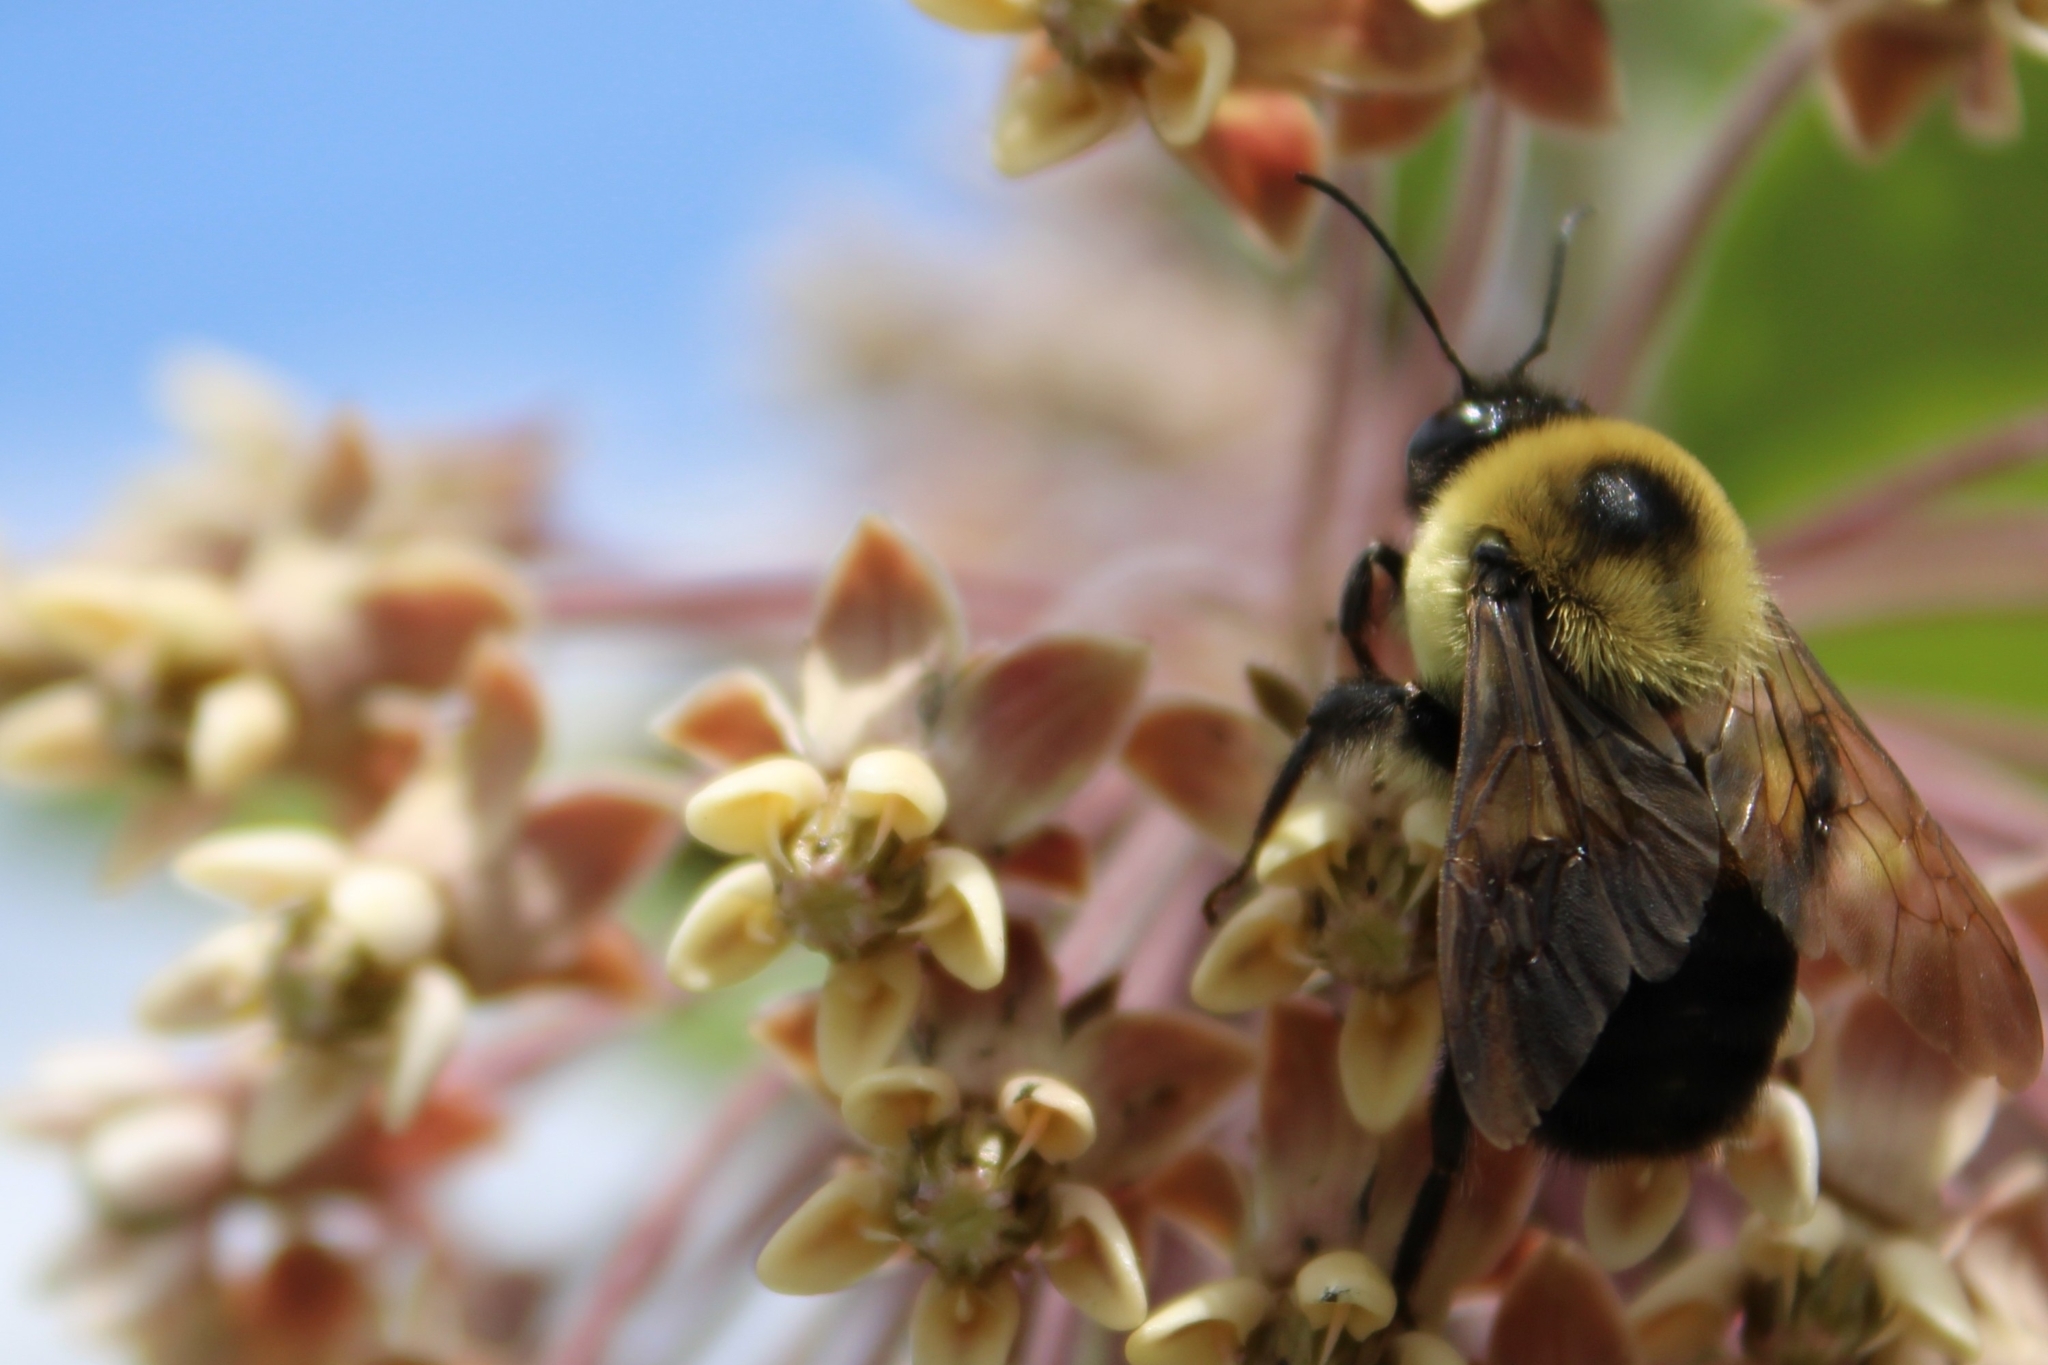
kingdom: Animalia
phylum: Arthropoda
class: Insecta
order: Hymenoptera
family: Apidae
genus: Bombus
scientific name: Bombus griseocollis
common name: Brown-belted bumble bee
